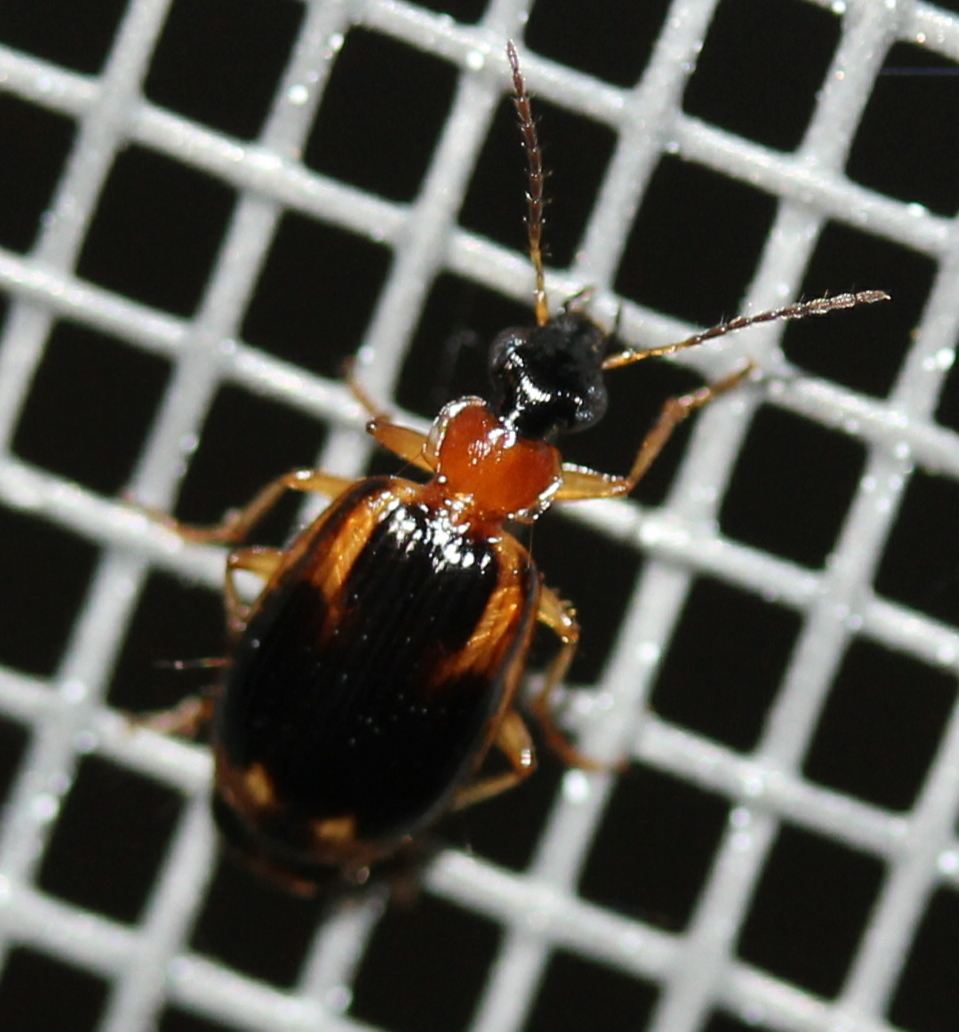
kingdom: Animalia
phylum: Arthropoda
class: Insecta
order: Coleoptera
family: Carabidae
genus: Lebia
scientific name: Lebia analis
